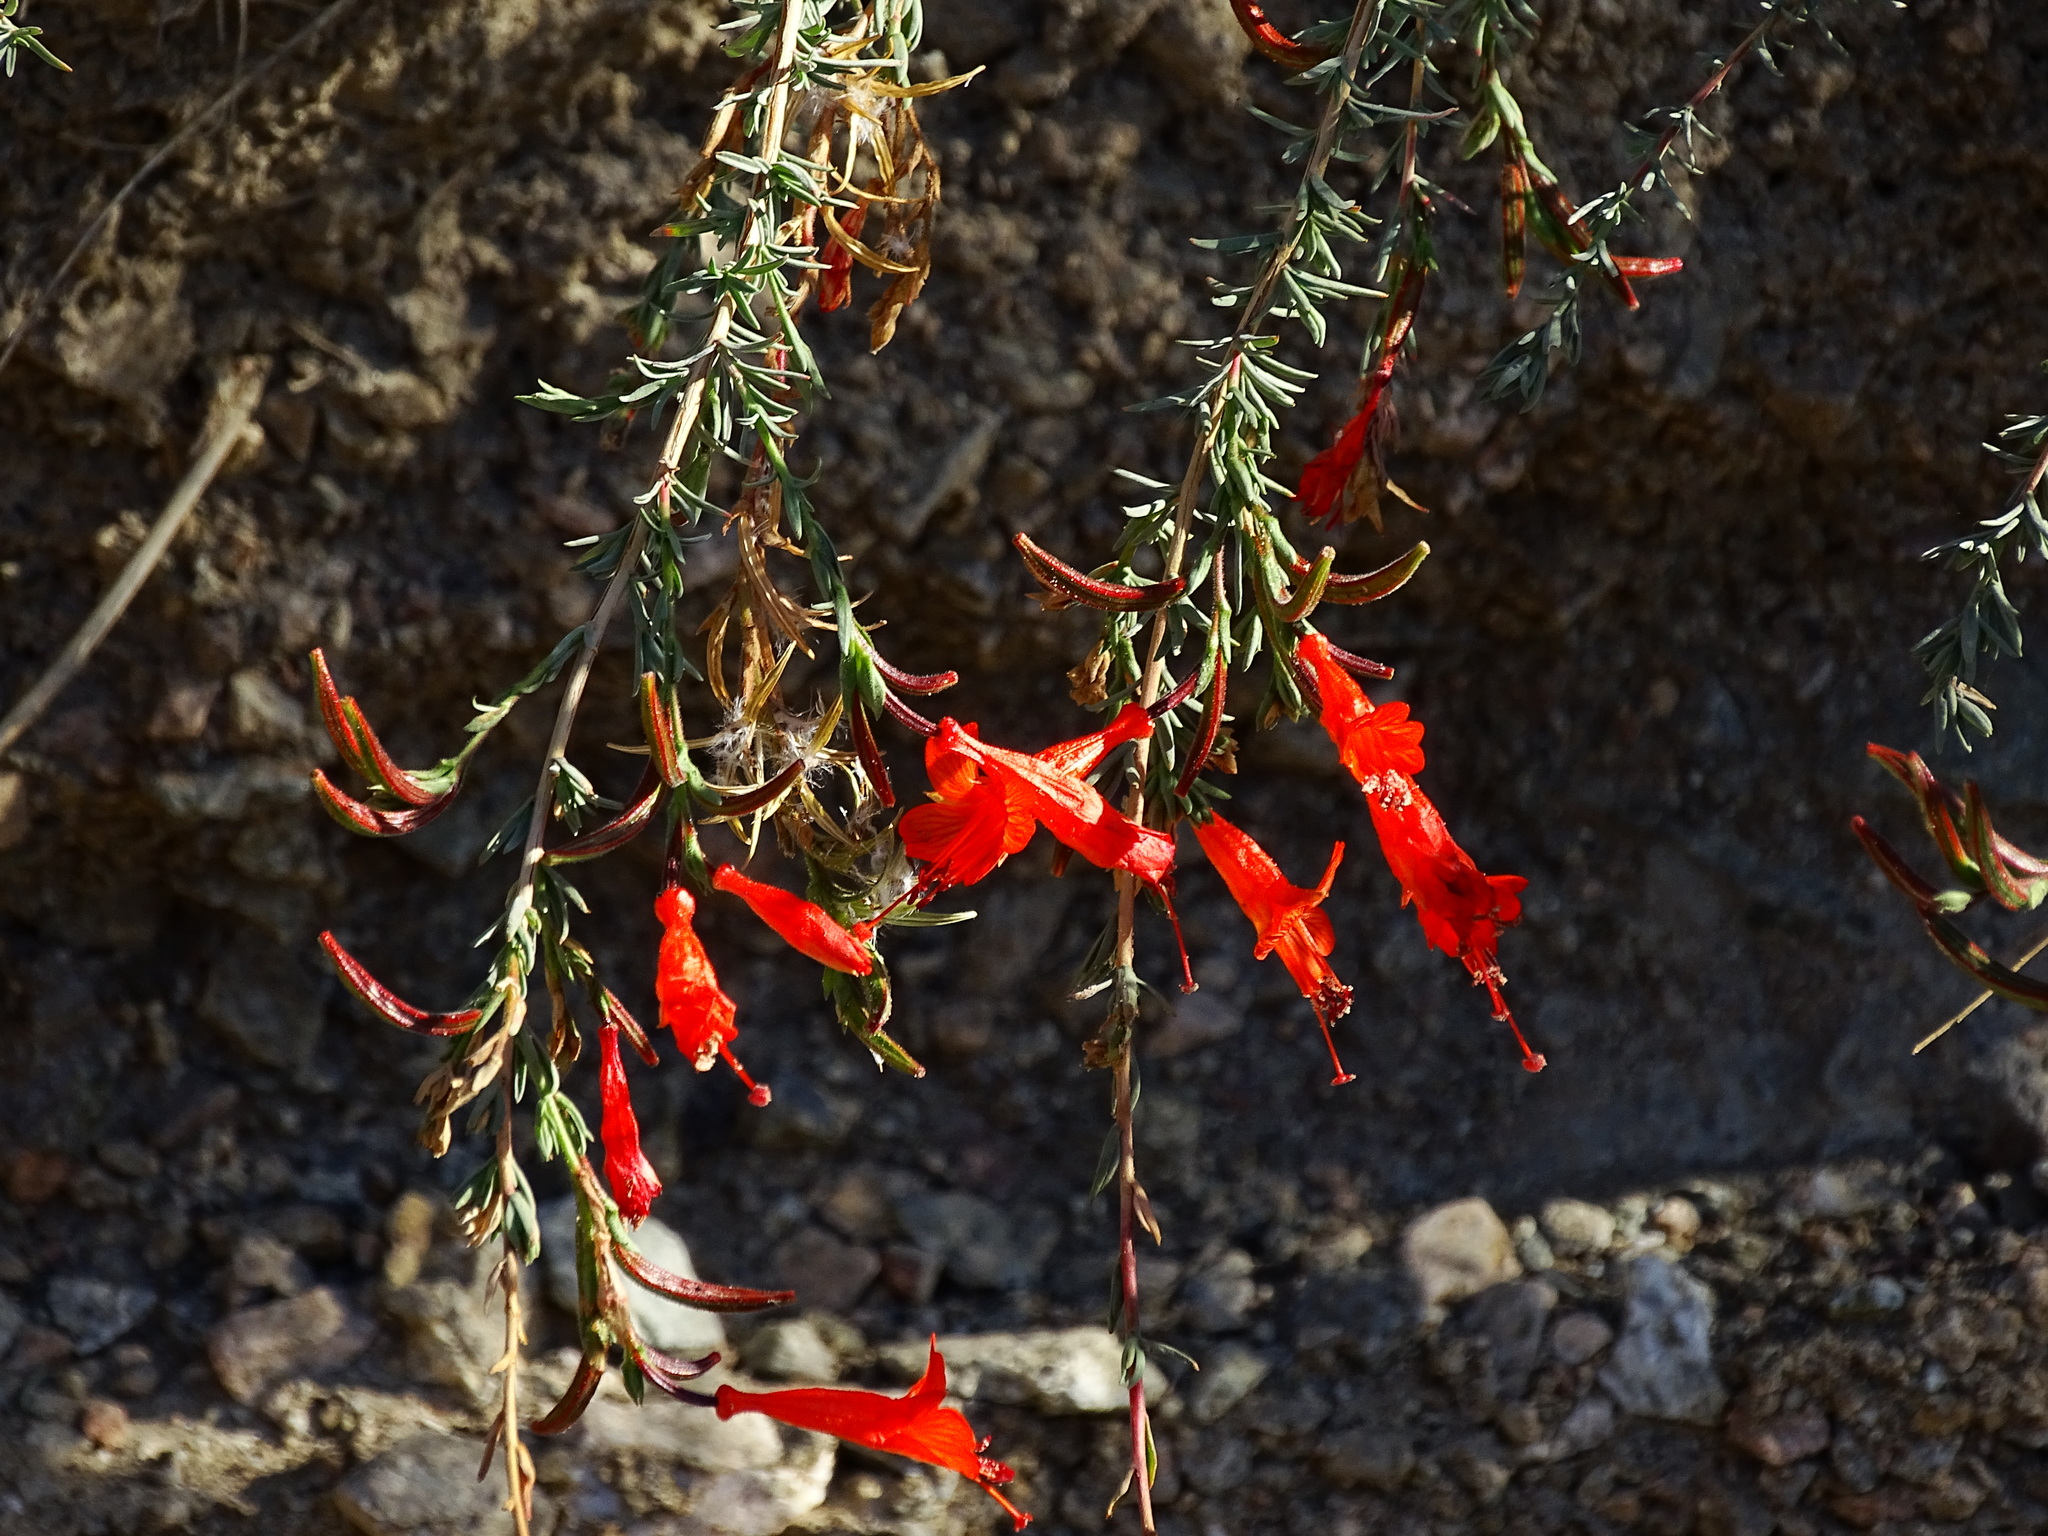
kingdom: Plantae
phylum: Tracheophyta
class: Magnoliopsida
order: Myrtales
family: Onagraceae
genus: Epilobium
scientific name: Epilobium canum
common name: California-fuchsia
